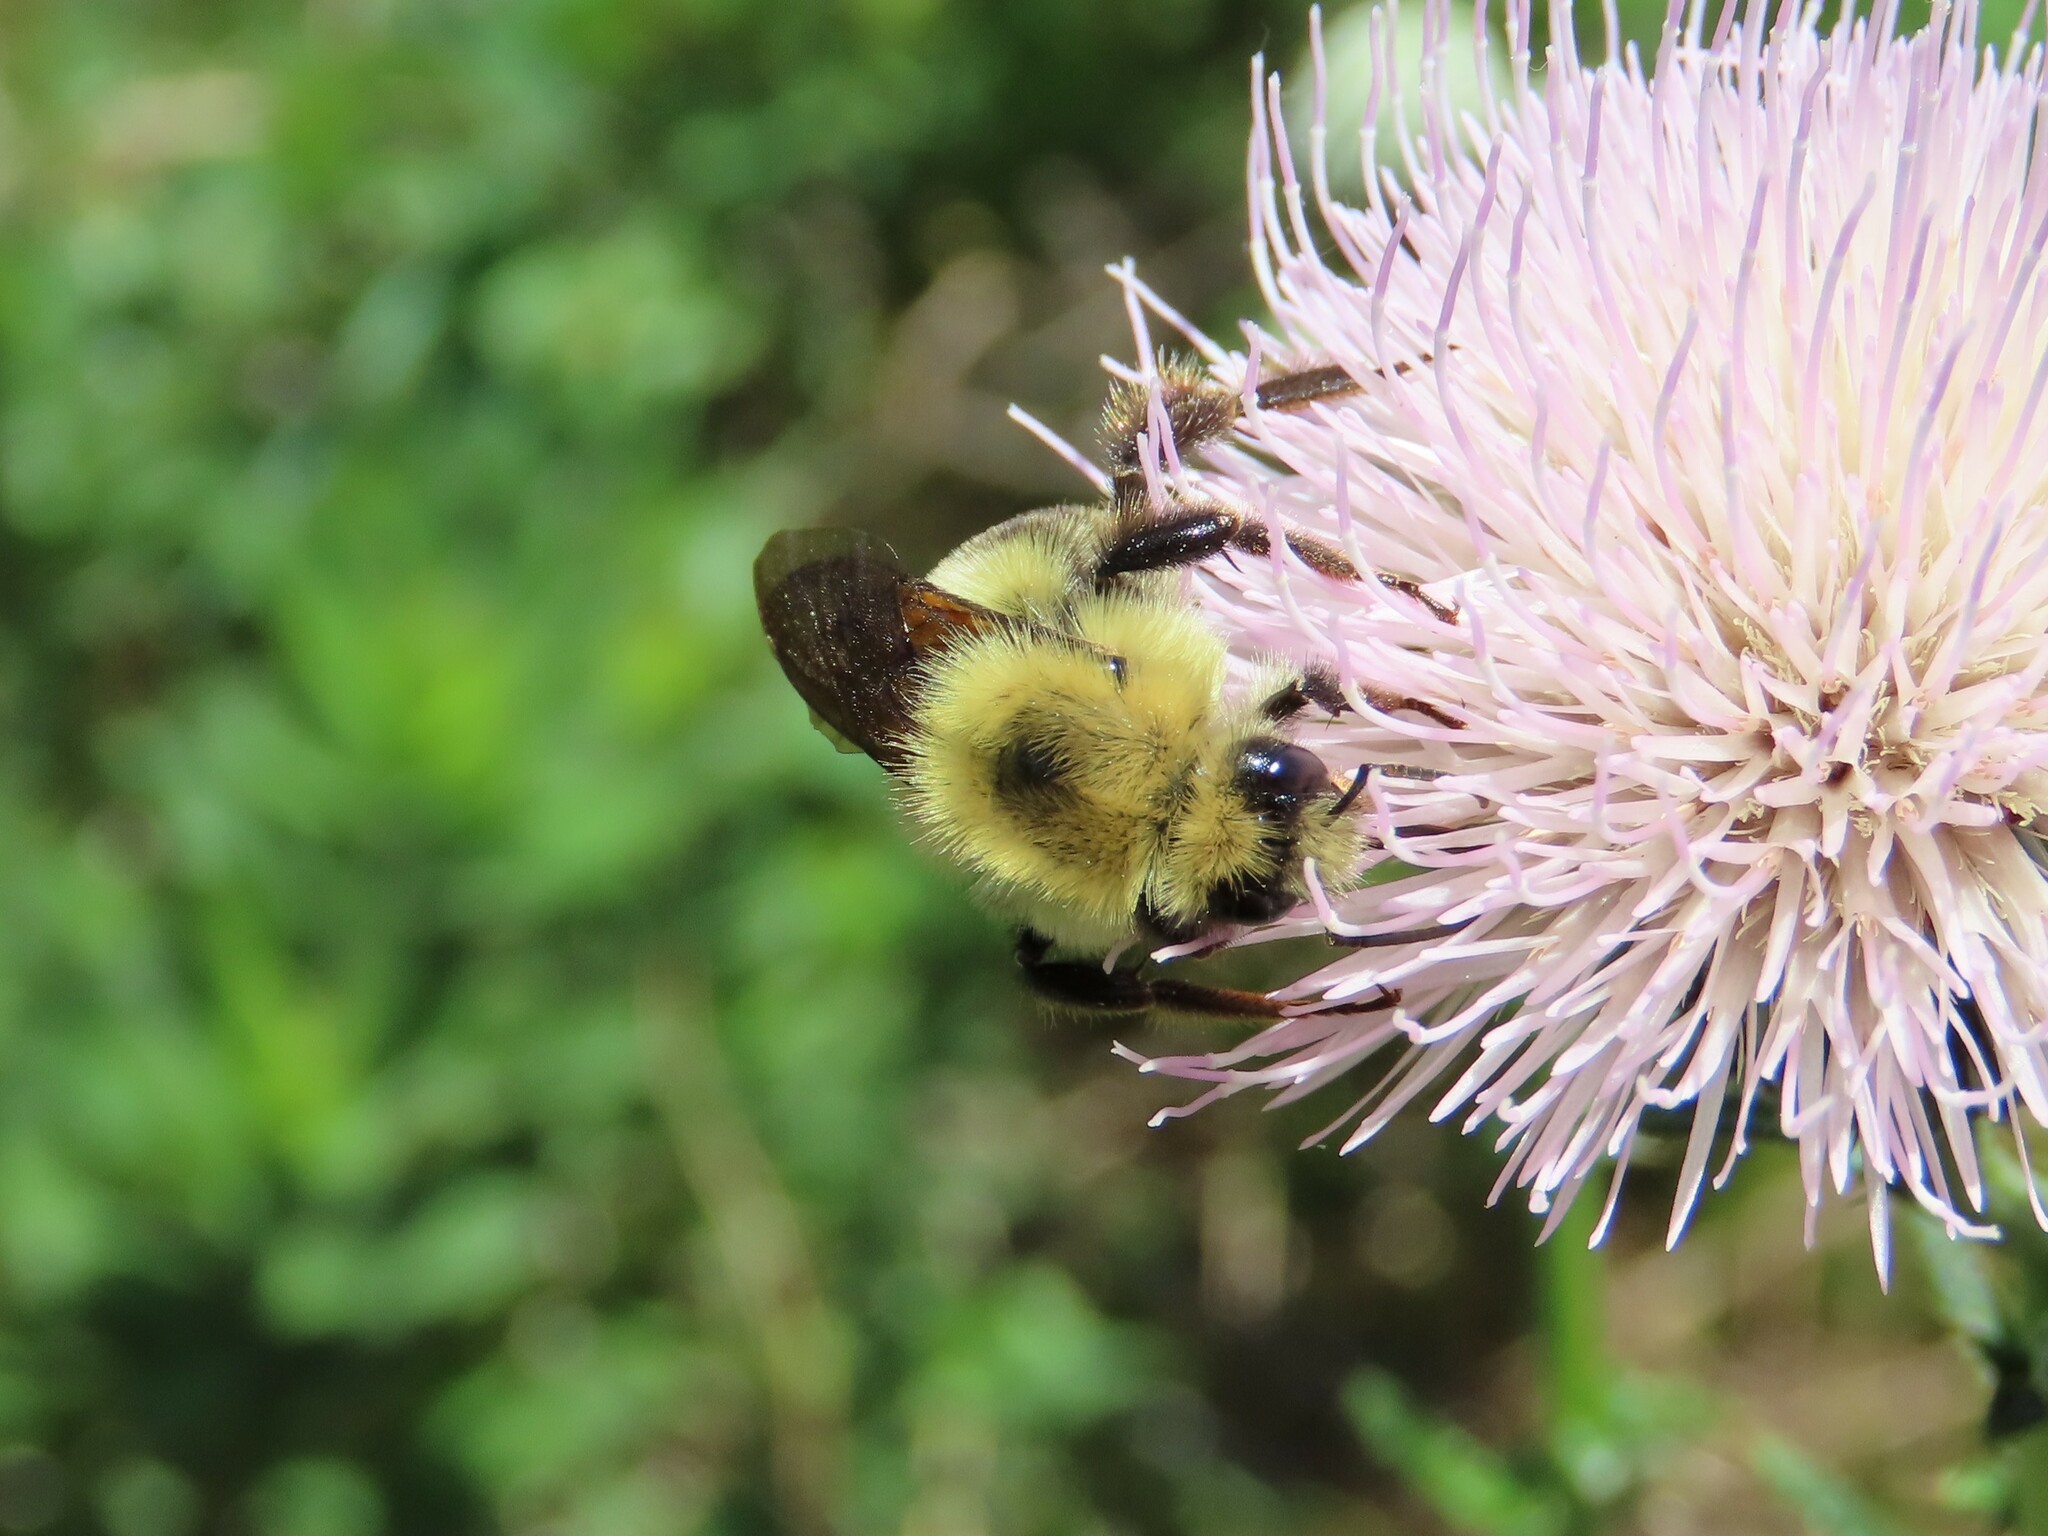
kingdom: Animalia
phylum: Arthropoda
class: Insecta
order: Hymenoptera
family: Apidae
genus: Bombus
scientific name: Bombus bimaculatus
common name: Two-spotted bumble bee
